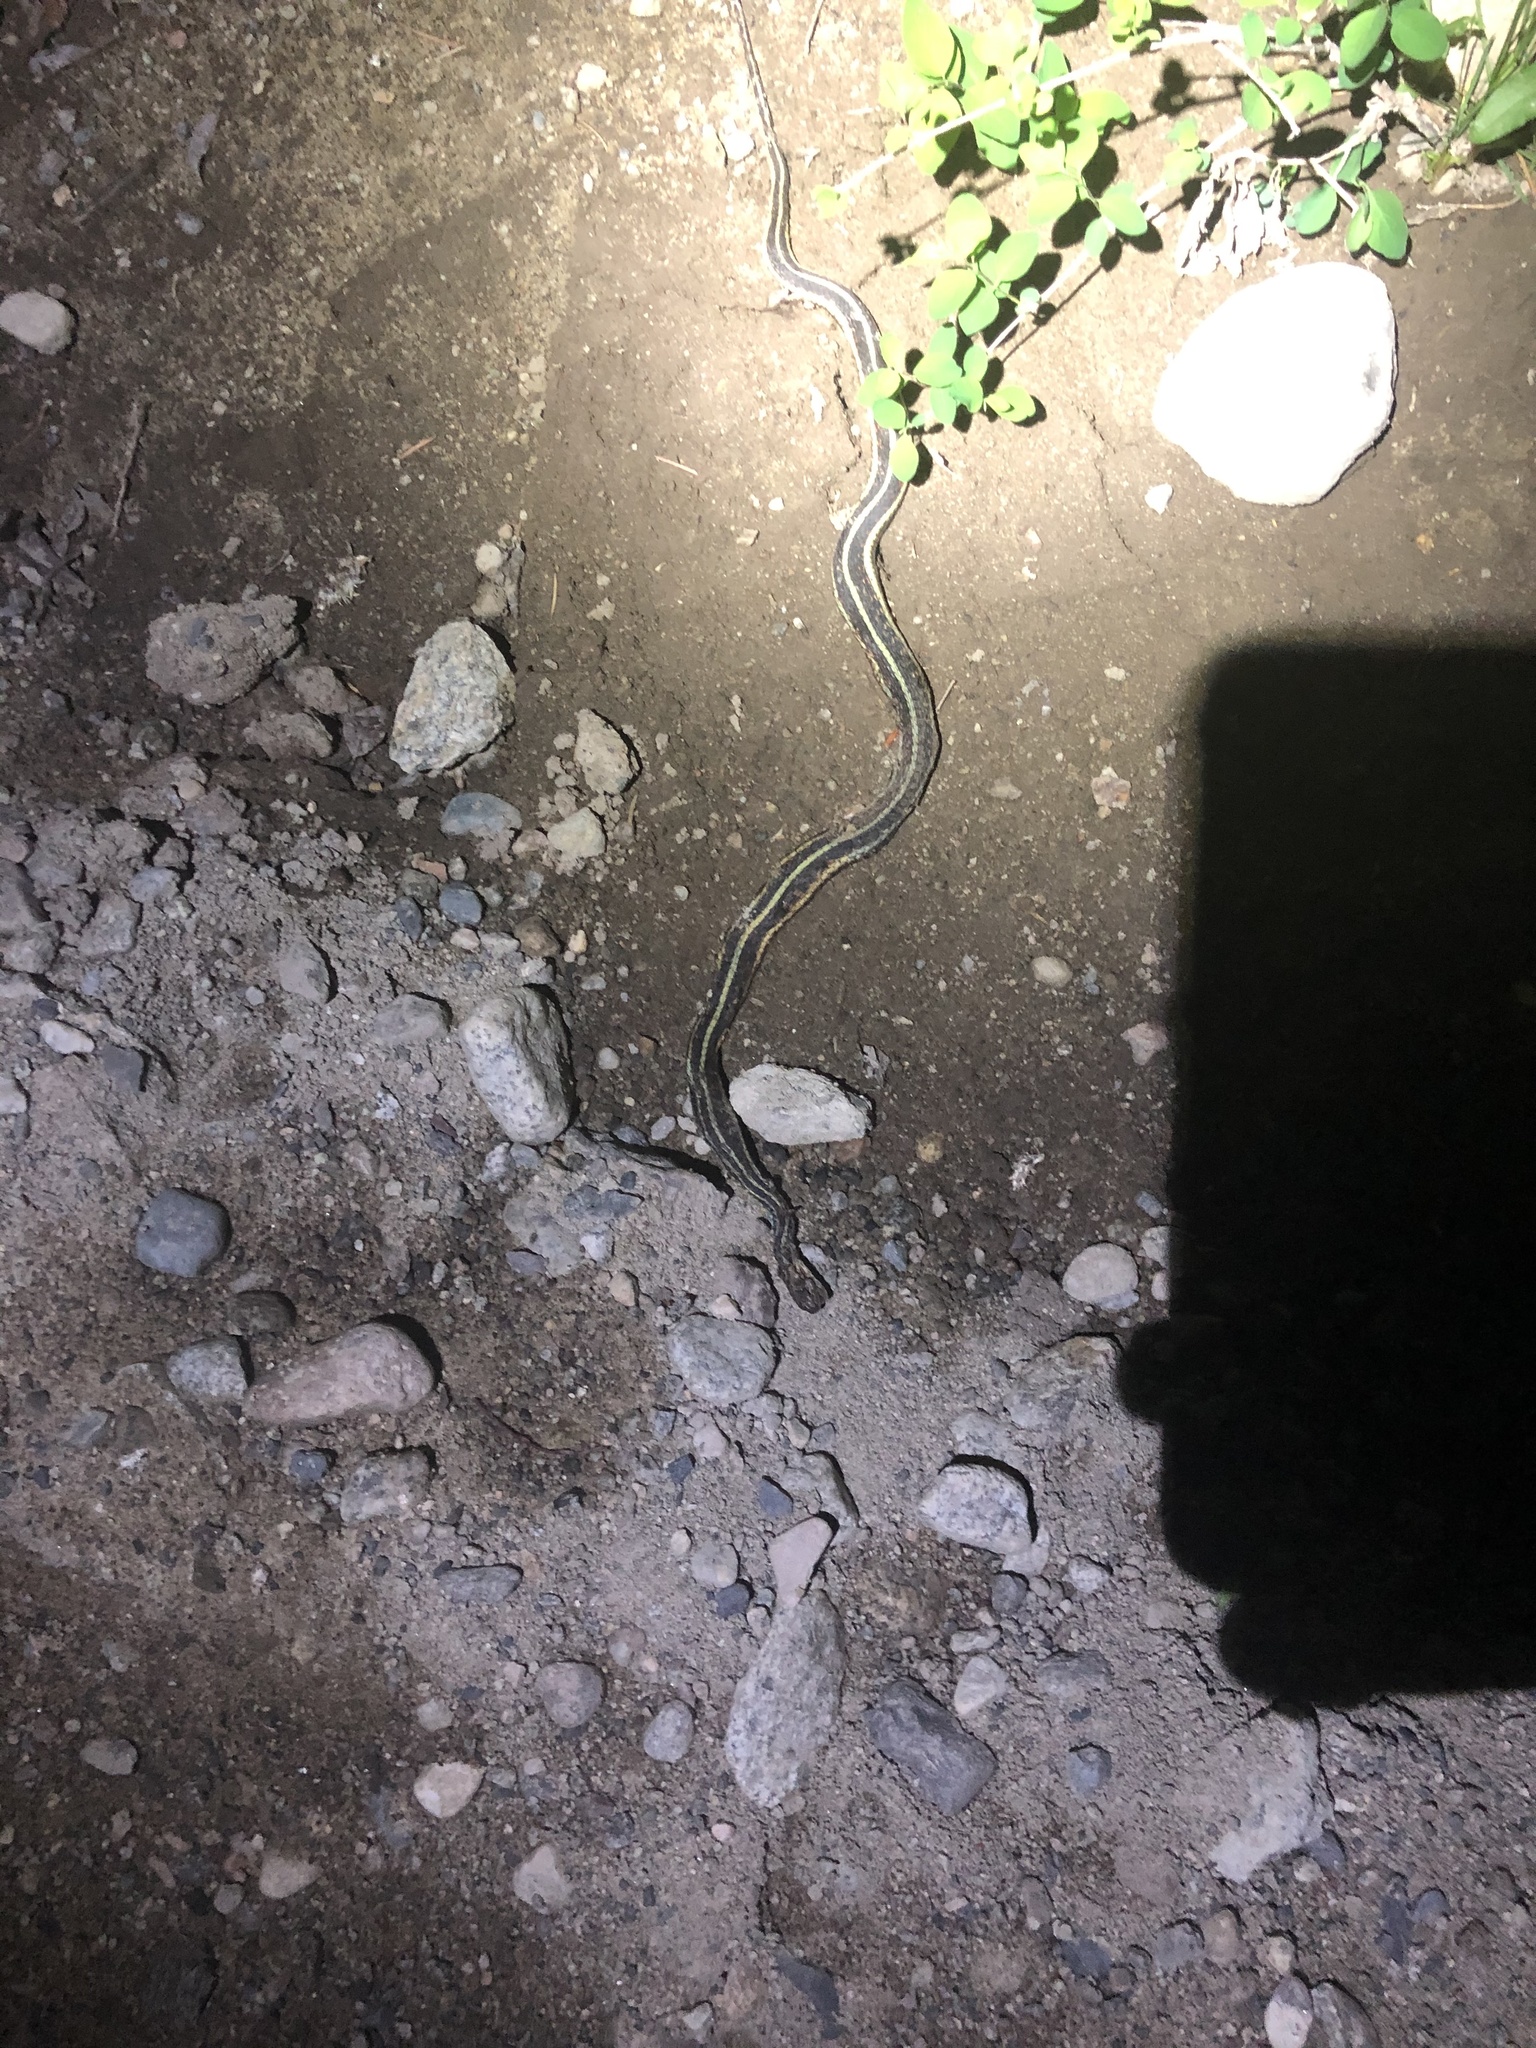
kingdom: Animalia
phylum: Chordata
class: Squamata
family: Colubridae
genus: Thamnophis
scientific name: Thamnophis sirtalis
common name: Common garter snake
